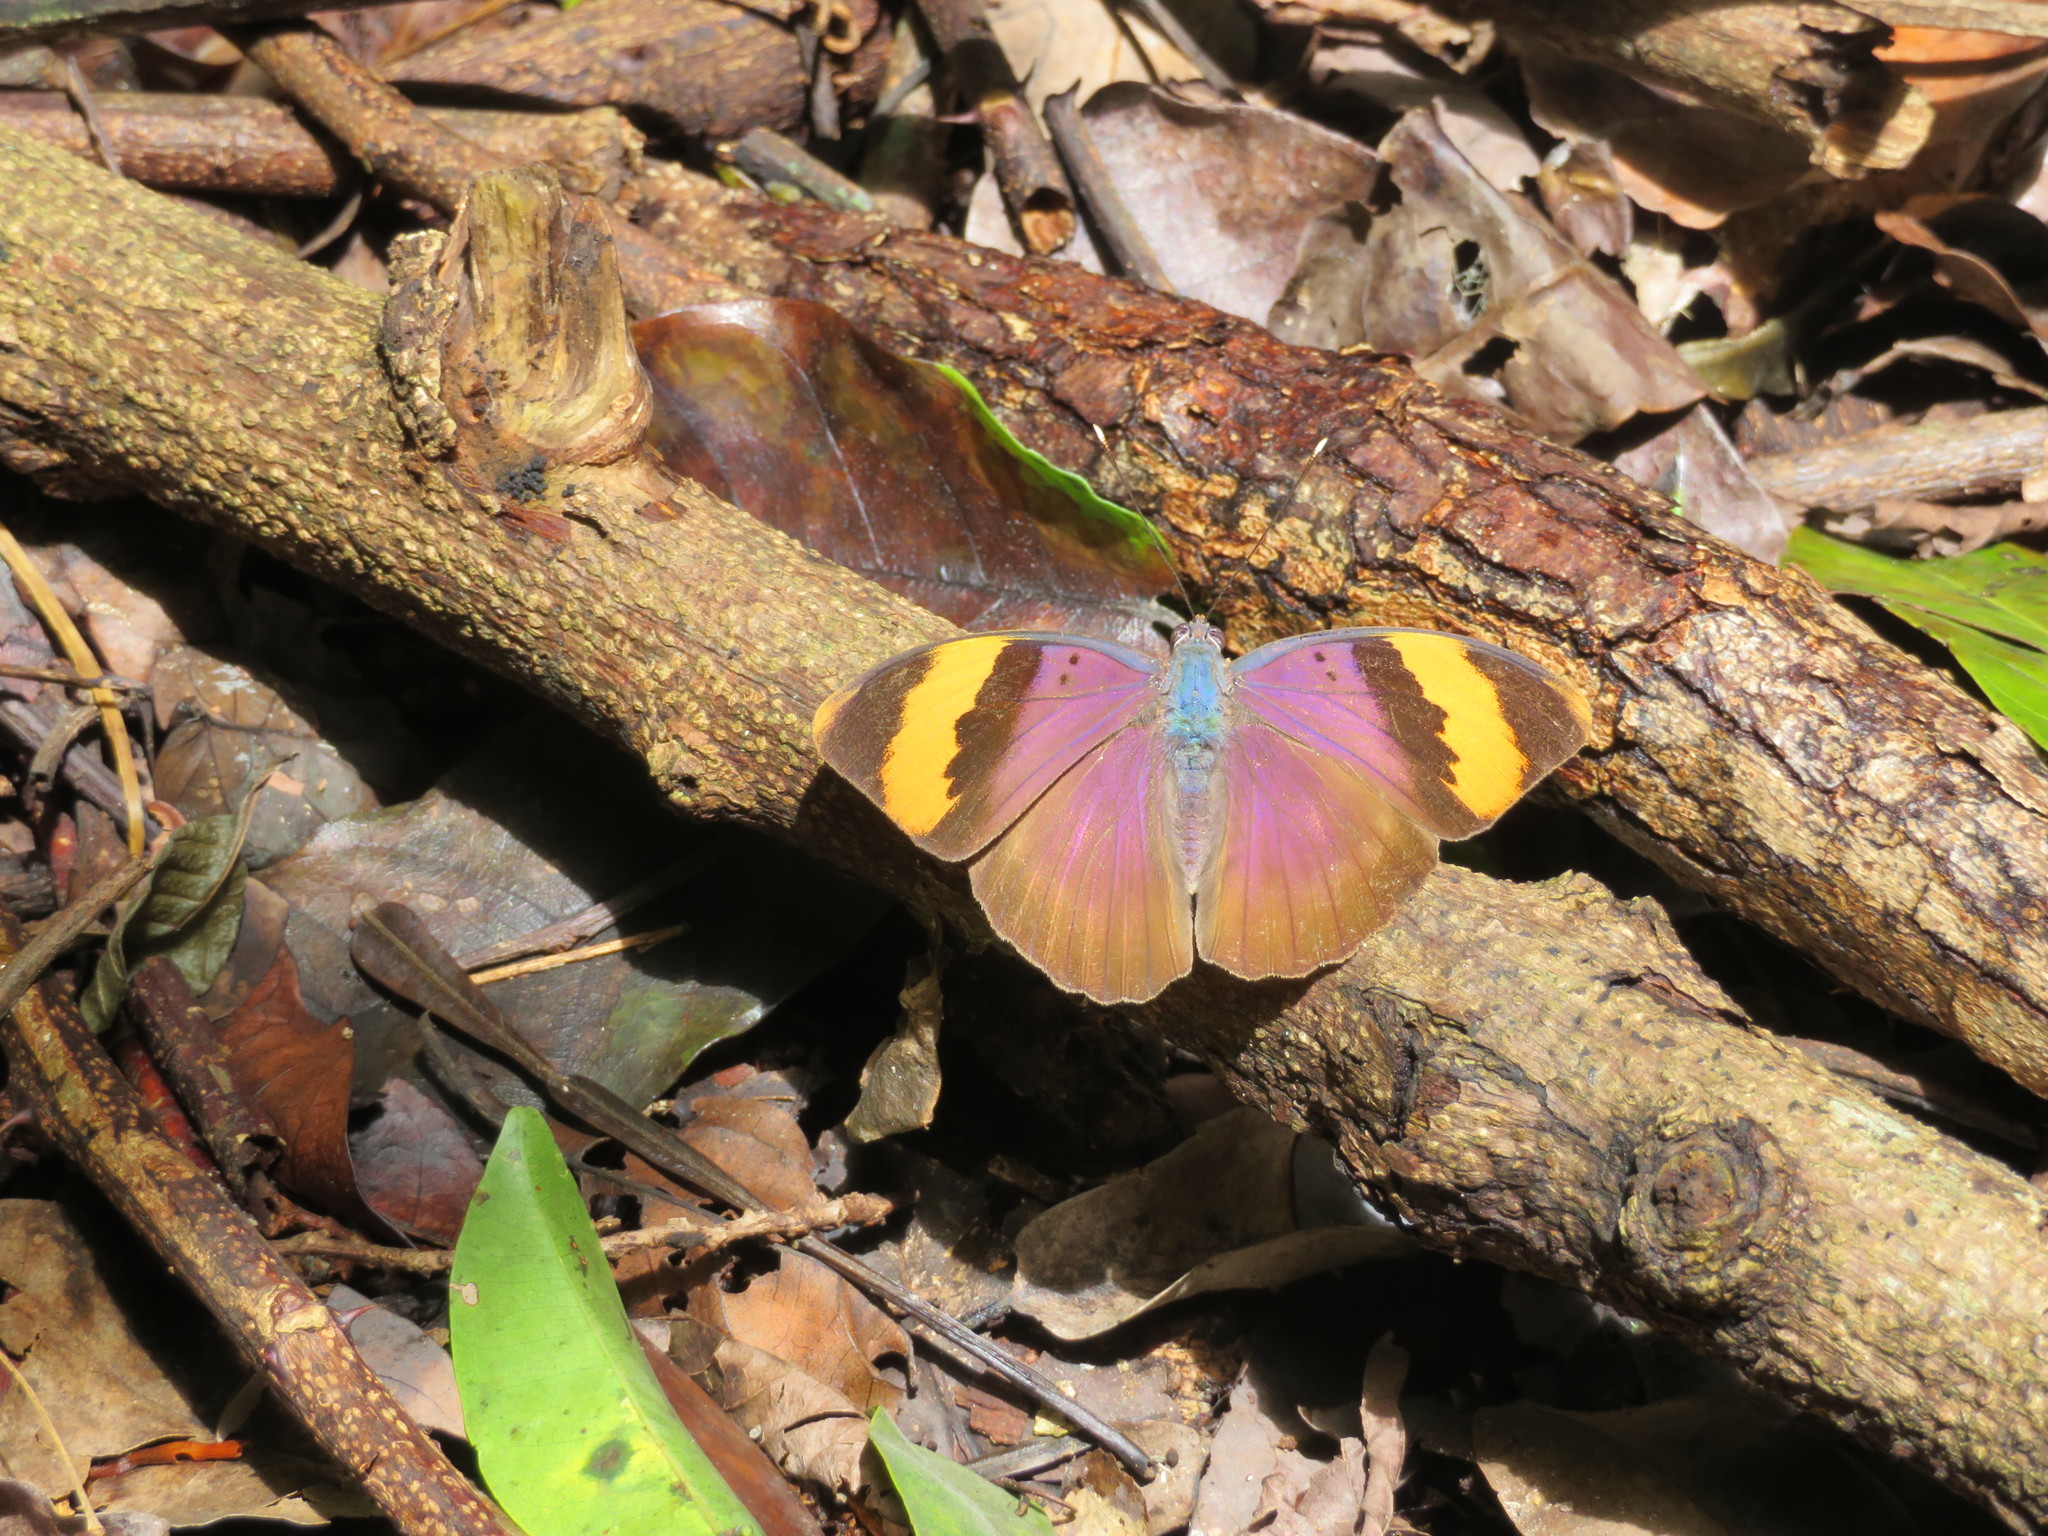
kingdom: Animalia
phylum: Arthropoda
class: Insecta
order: Lepidoptera
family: Nymphalidae
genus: Euphaedra
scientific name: Euphaedra neophron
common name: Gold-banded forester
